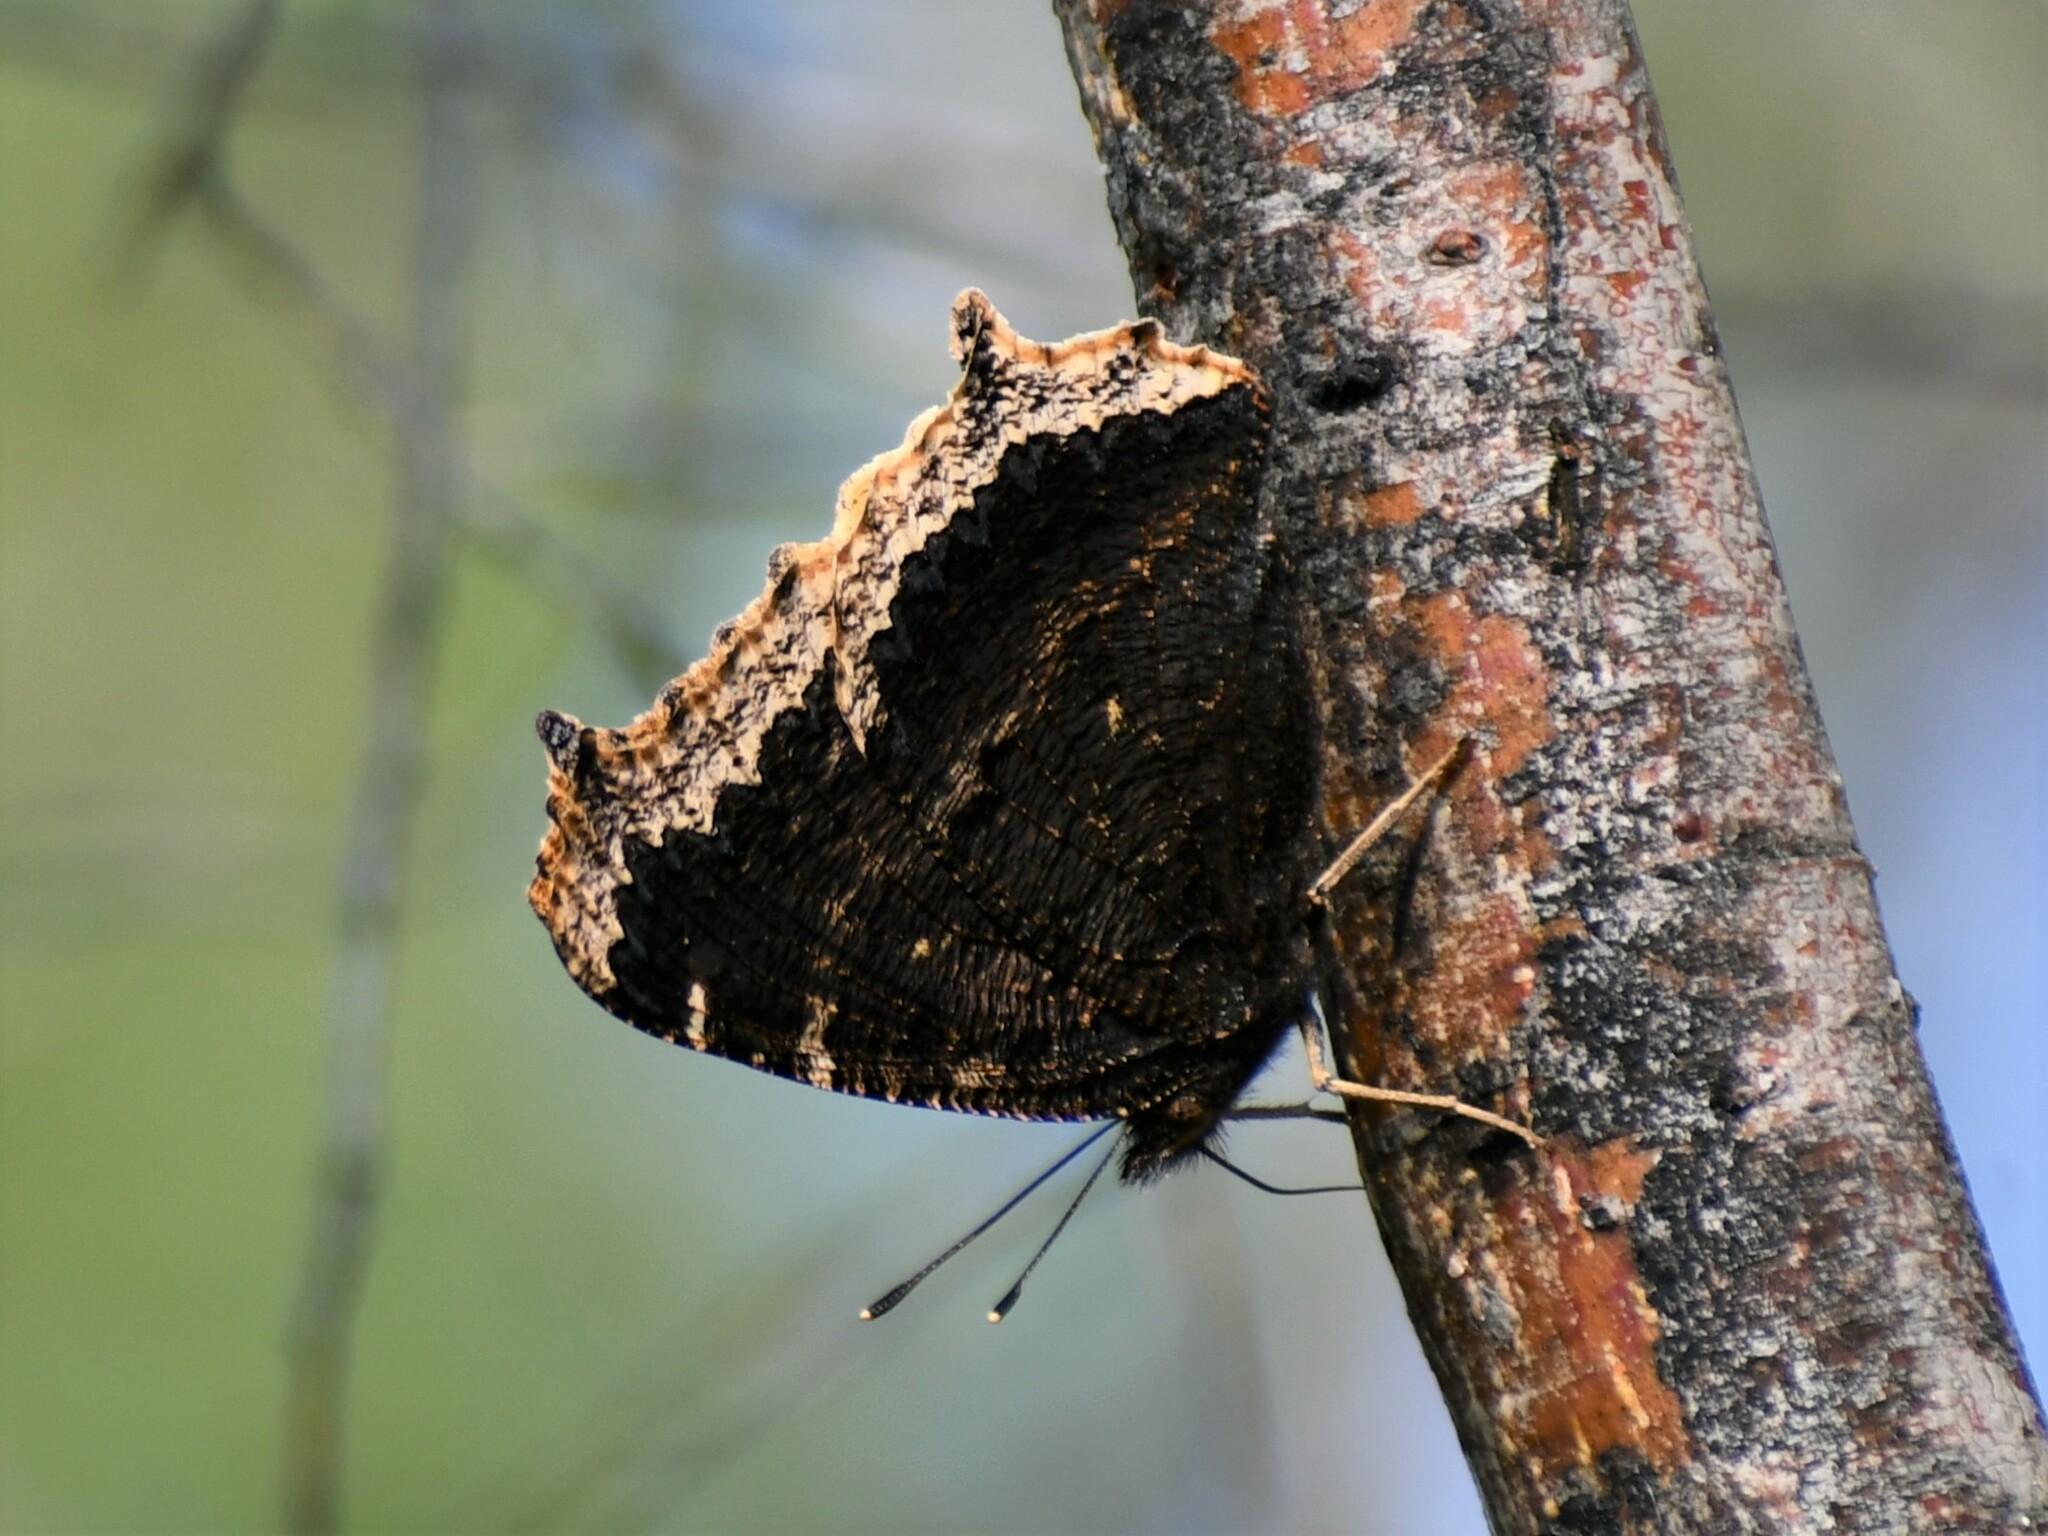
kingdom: Animalia
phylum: Arthropoda
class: Insecta
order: Lepidoptera
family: Nymphalidae
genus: Nymphalis
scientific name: Nymphalis antiopa
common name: Camberwell beauty
